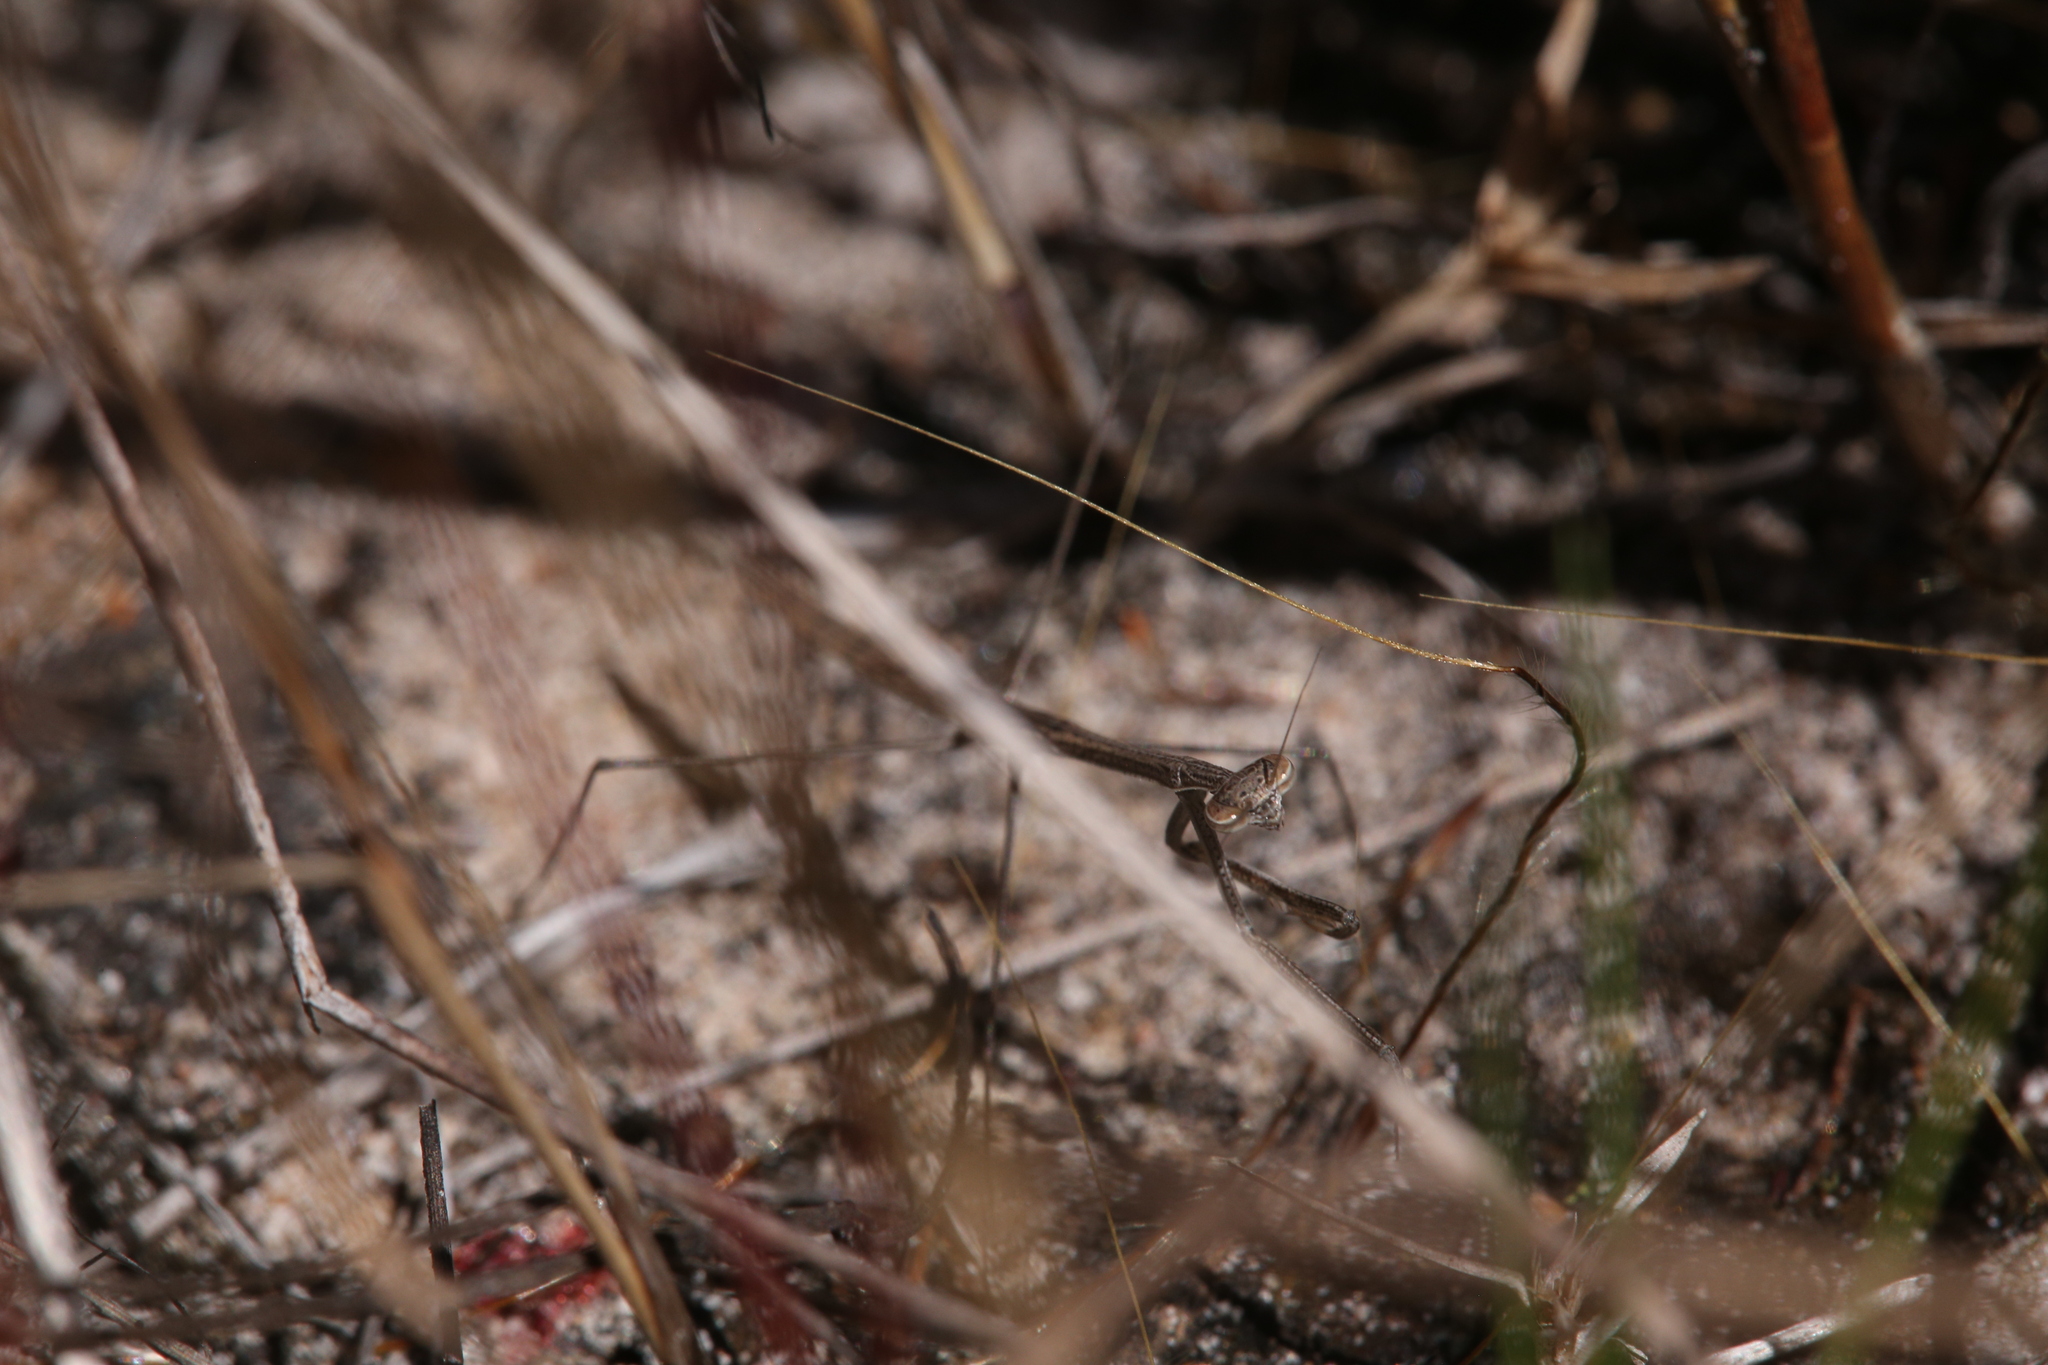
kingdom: Animalia
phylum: Arthropoda
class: Insecta
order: Mantodea
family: Mantidae
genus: Rhodomantis
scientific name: Rhodomantis queenslandica
